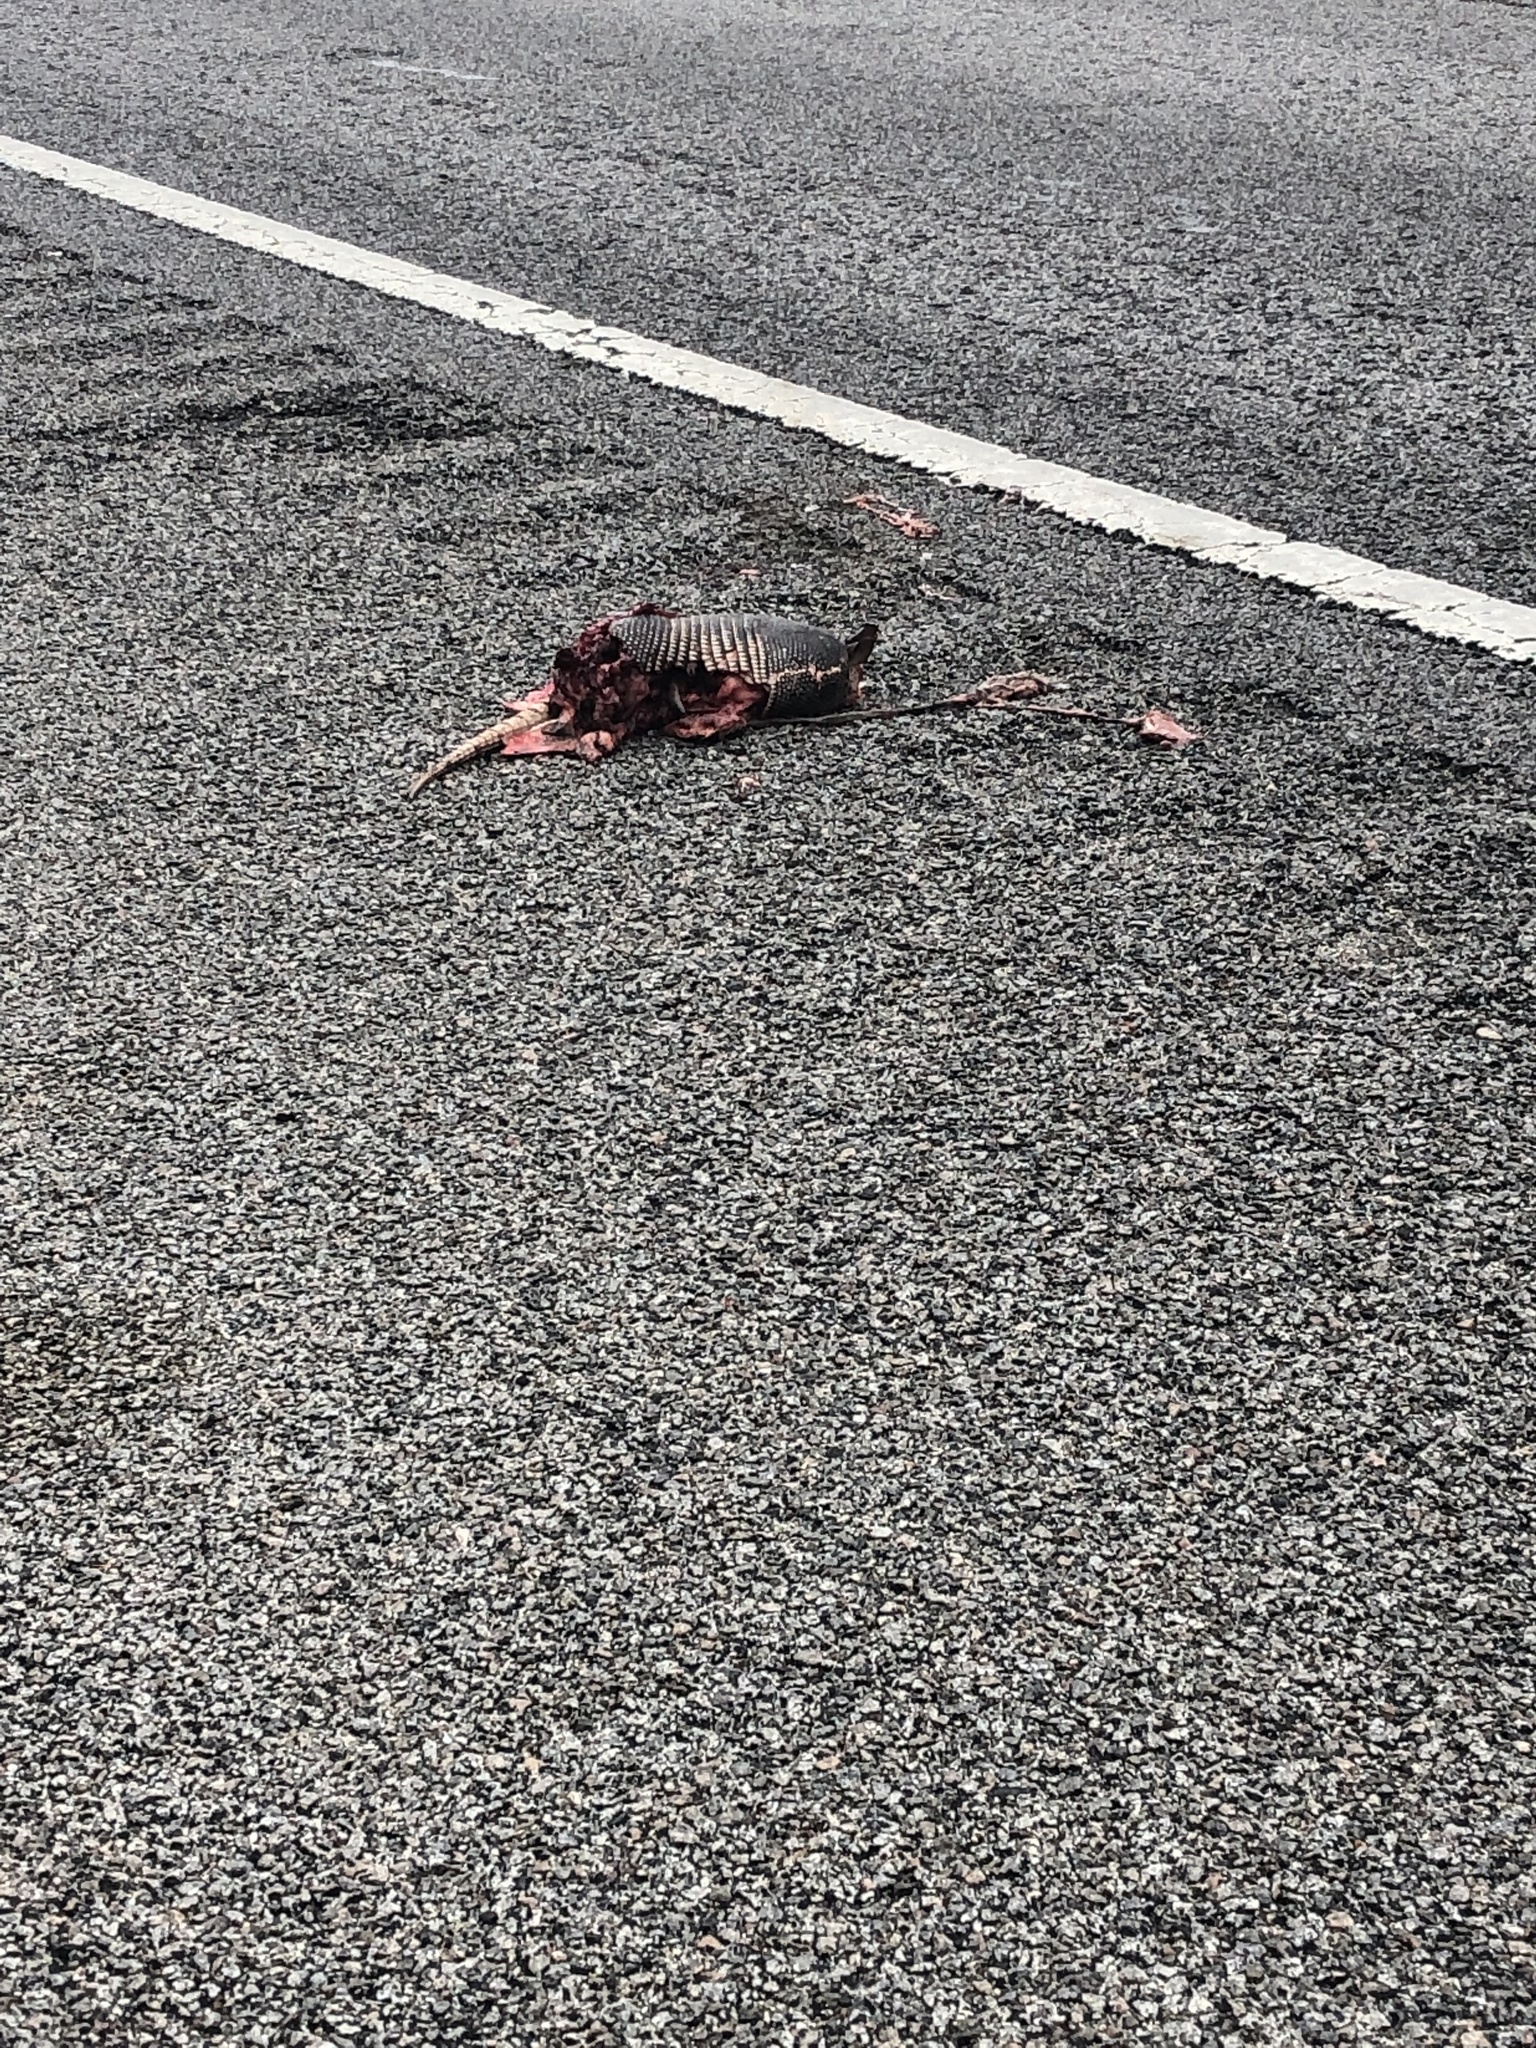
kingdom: Animalia
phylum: Chordata
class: Mammalia
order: Cingulata
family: Dasypodidae
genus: Dasypus
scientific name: Dasypus novemcinctus
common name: Nine-banded armadillo
